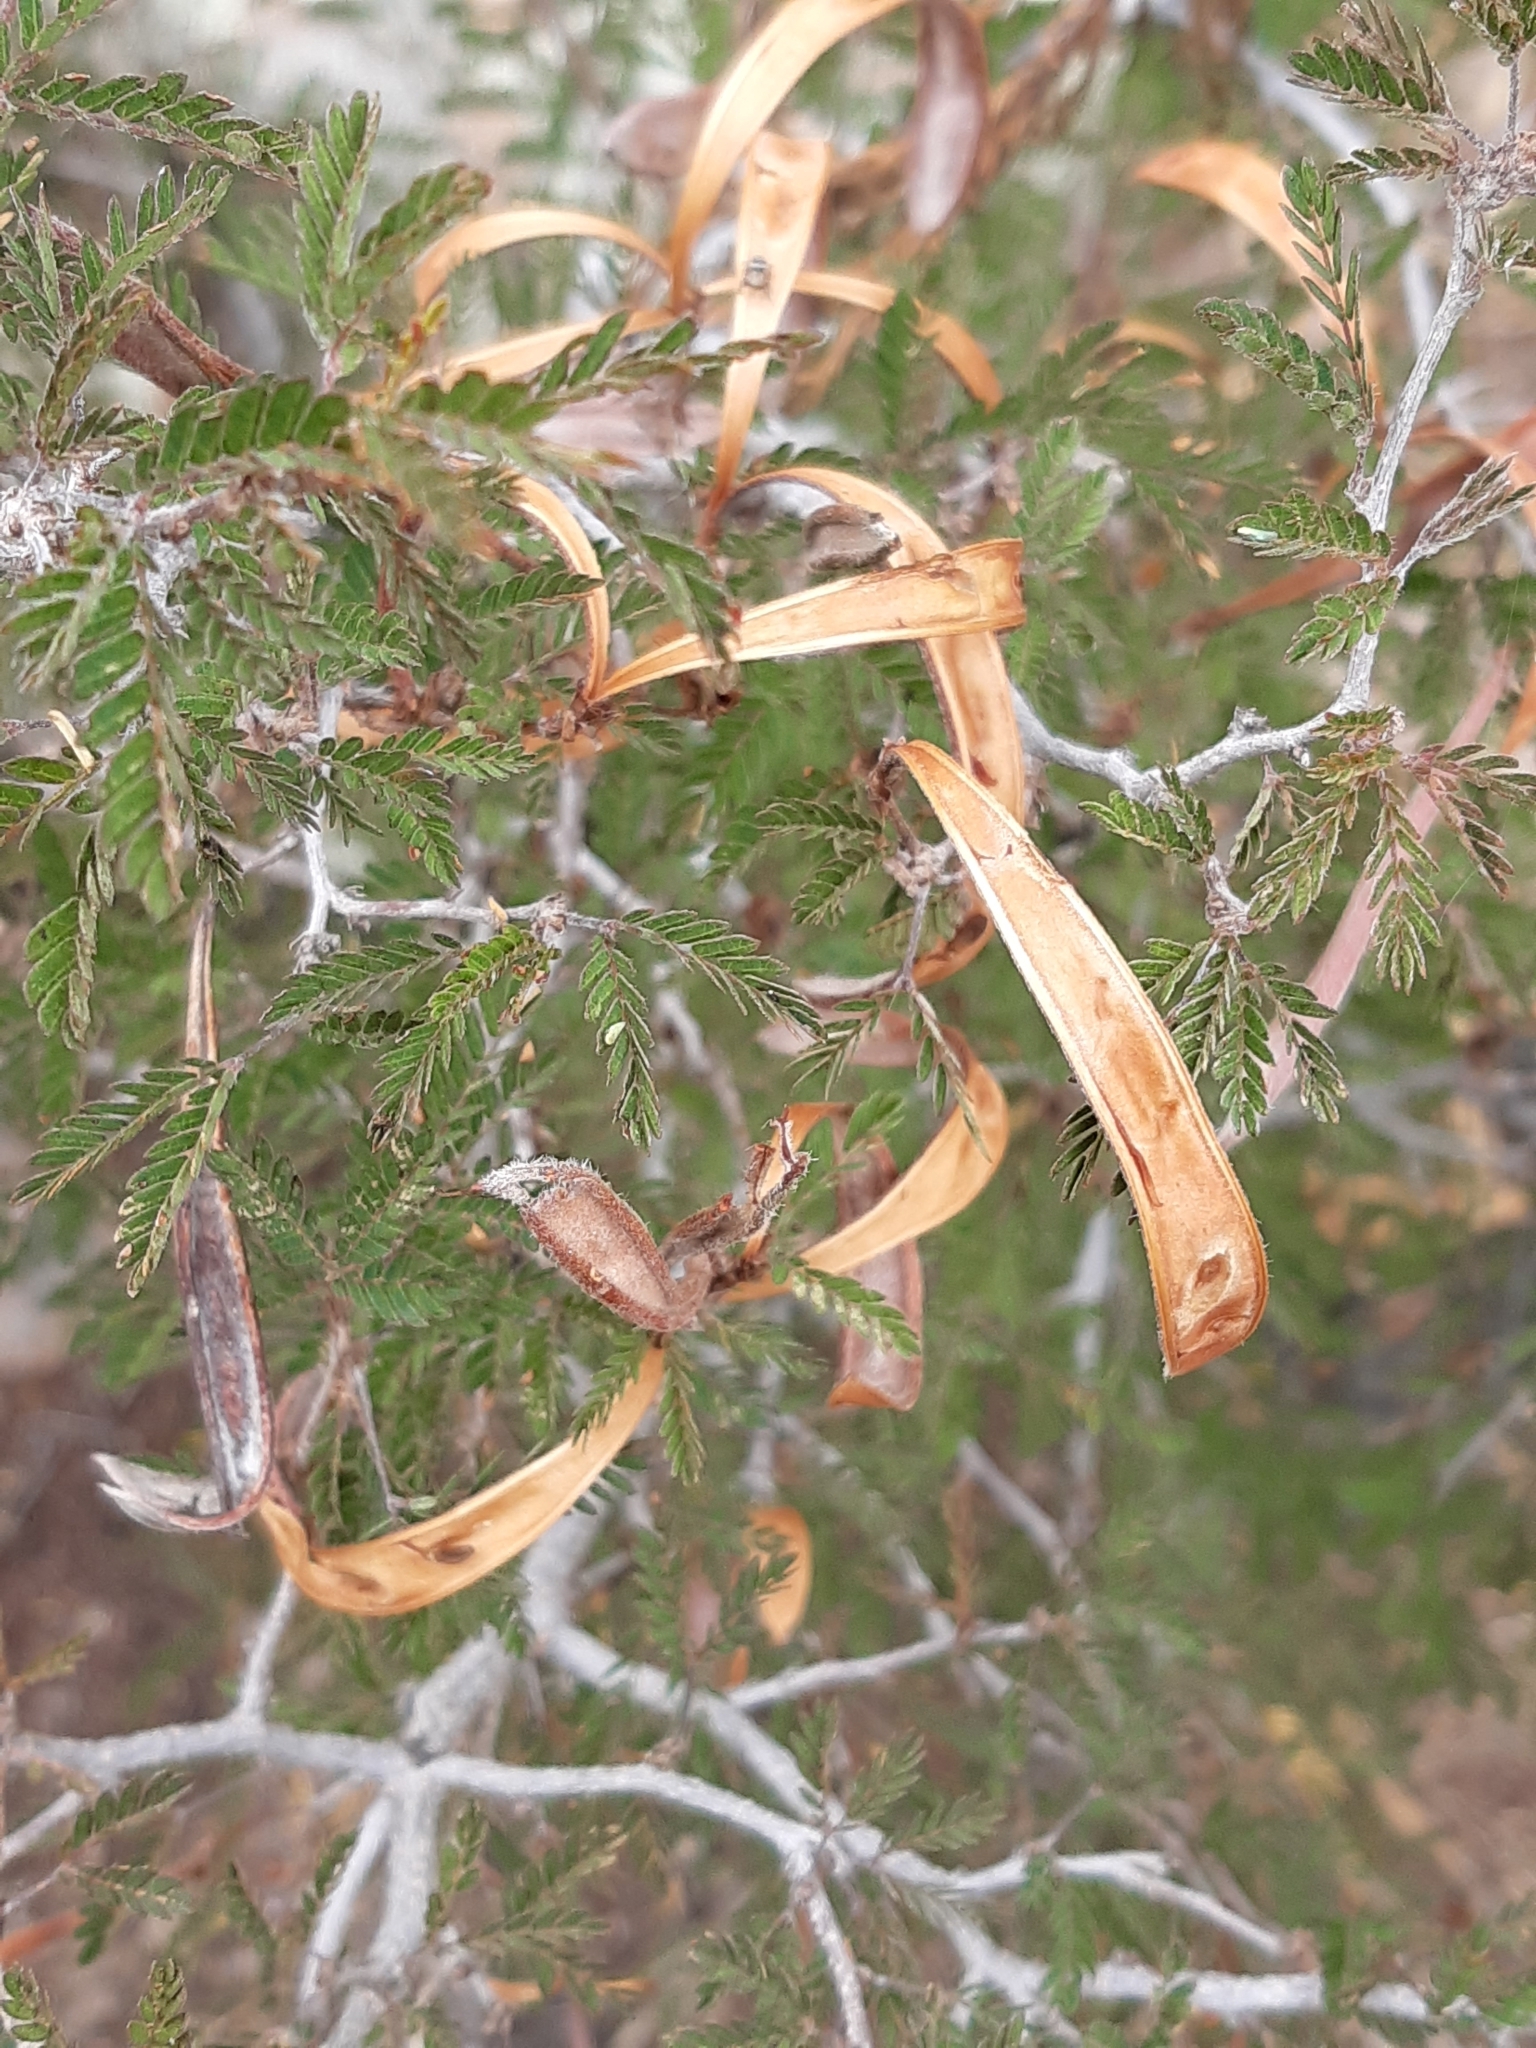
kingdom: Plantae
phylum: Tracheophyta
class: Magnoliopsida
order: Fabales
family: Fabaceae
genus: Calliandra
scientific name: Calliandra eriophylla
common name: Fairy-duster
